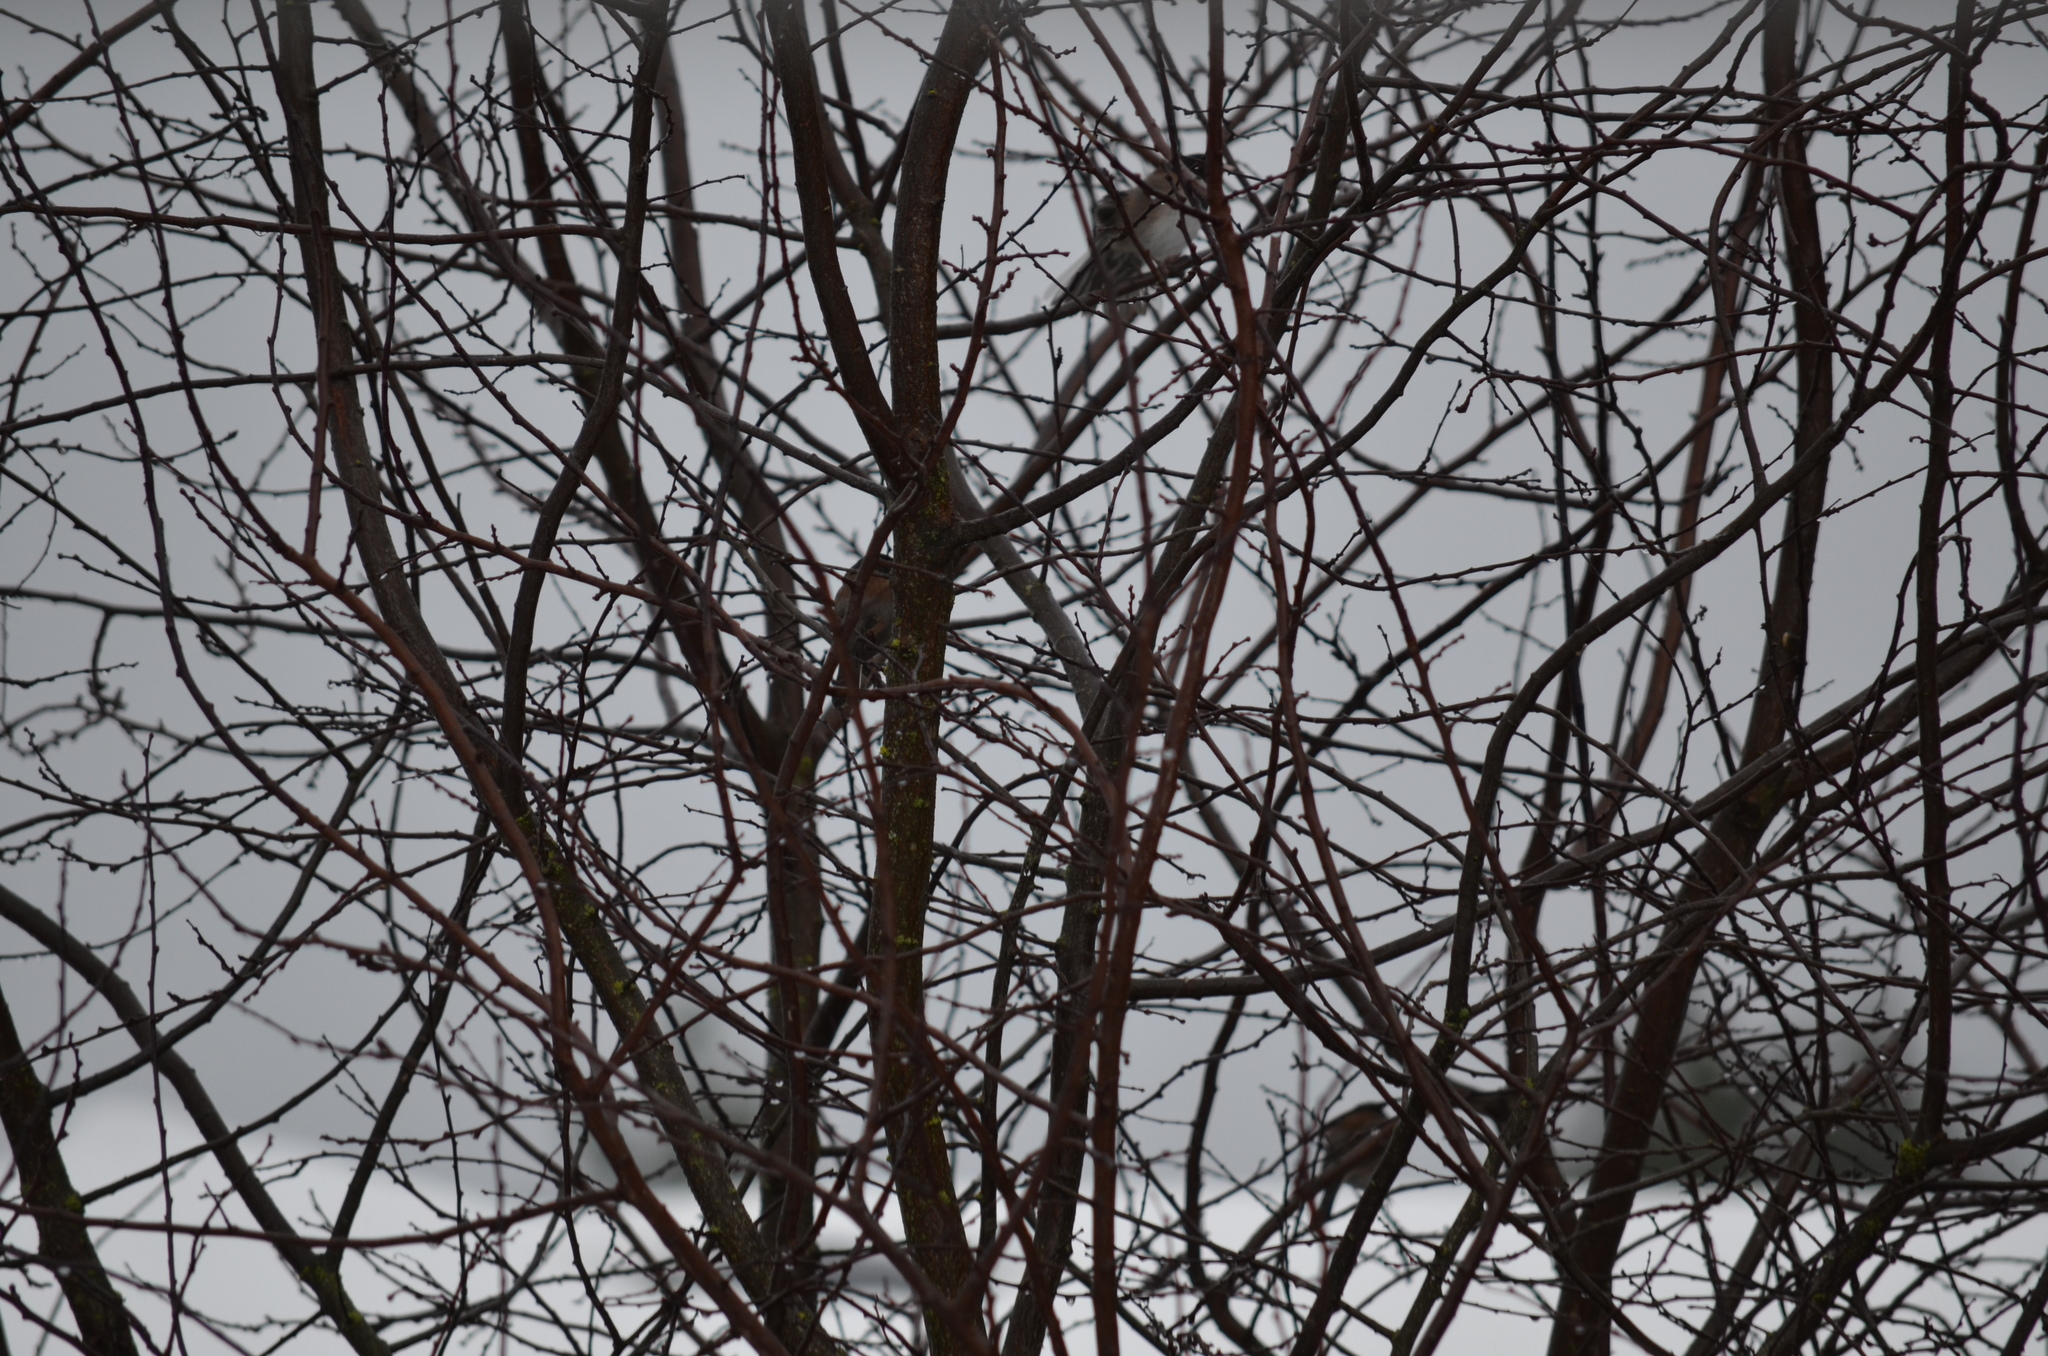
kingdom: Animalia
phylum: Chordata
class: Aves
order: Passeriformes
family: Passerellidae
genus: Junco
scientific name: Junco hyemalis
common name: Dark-eyed junco
